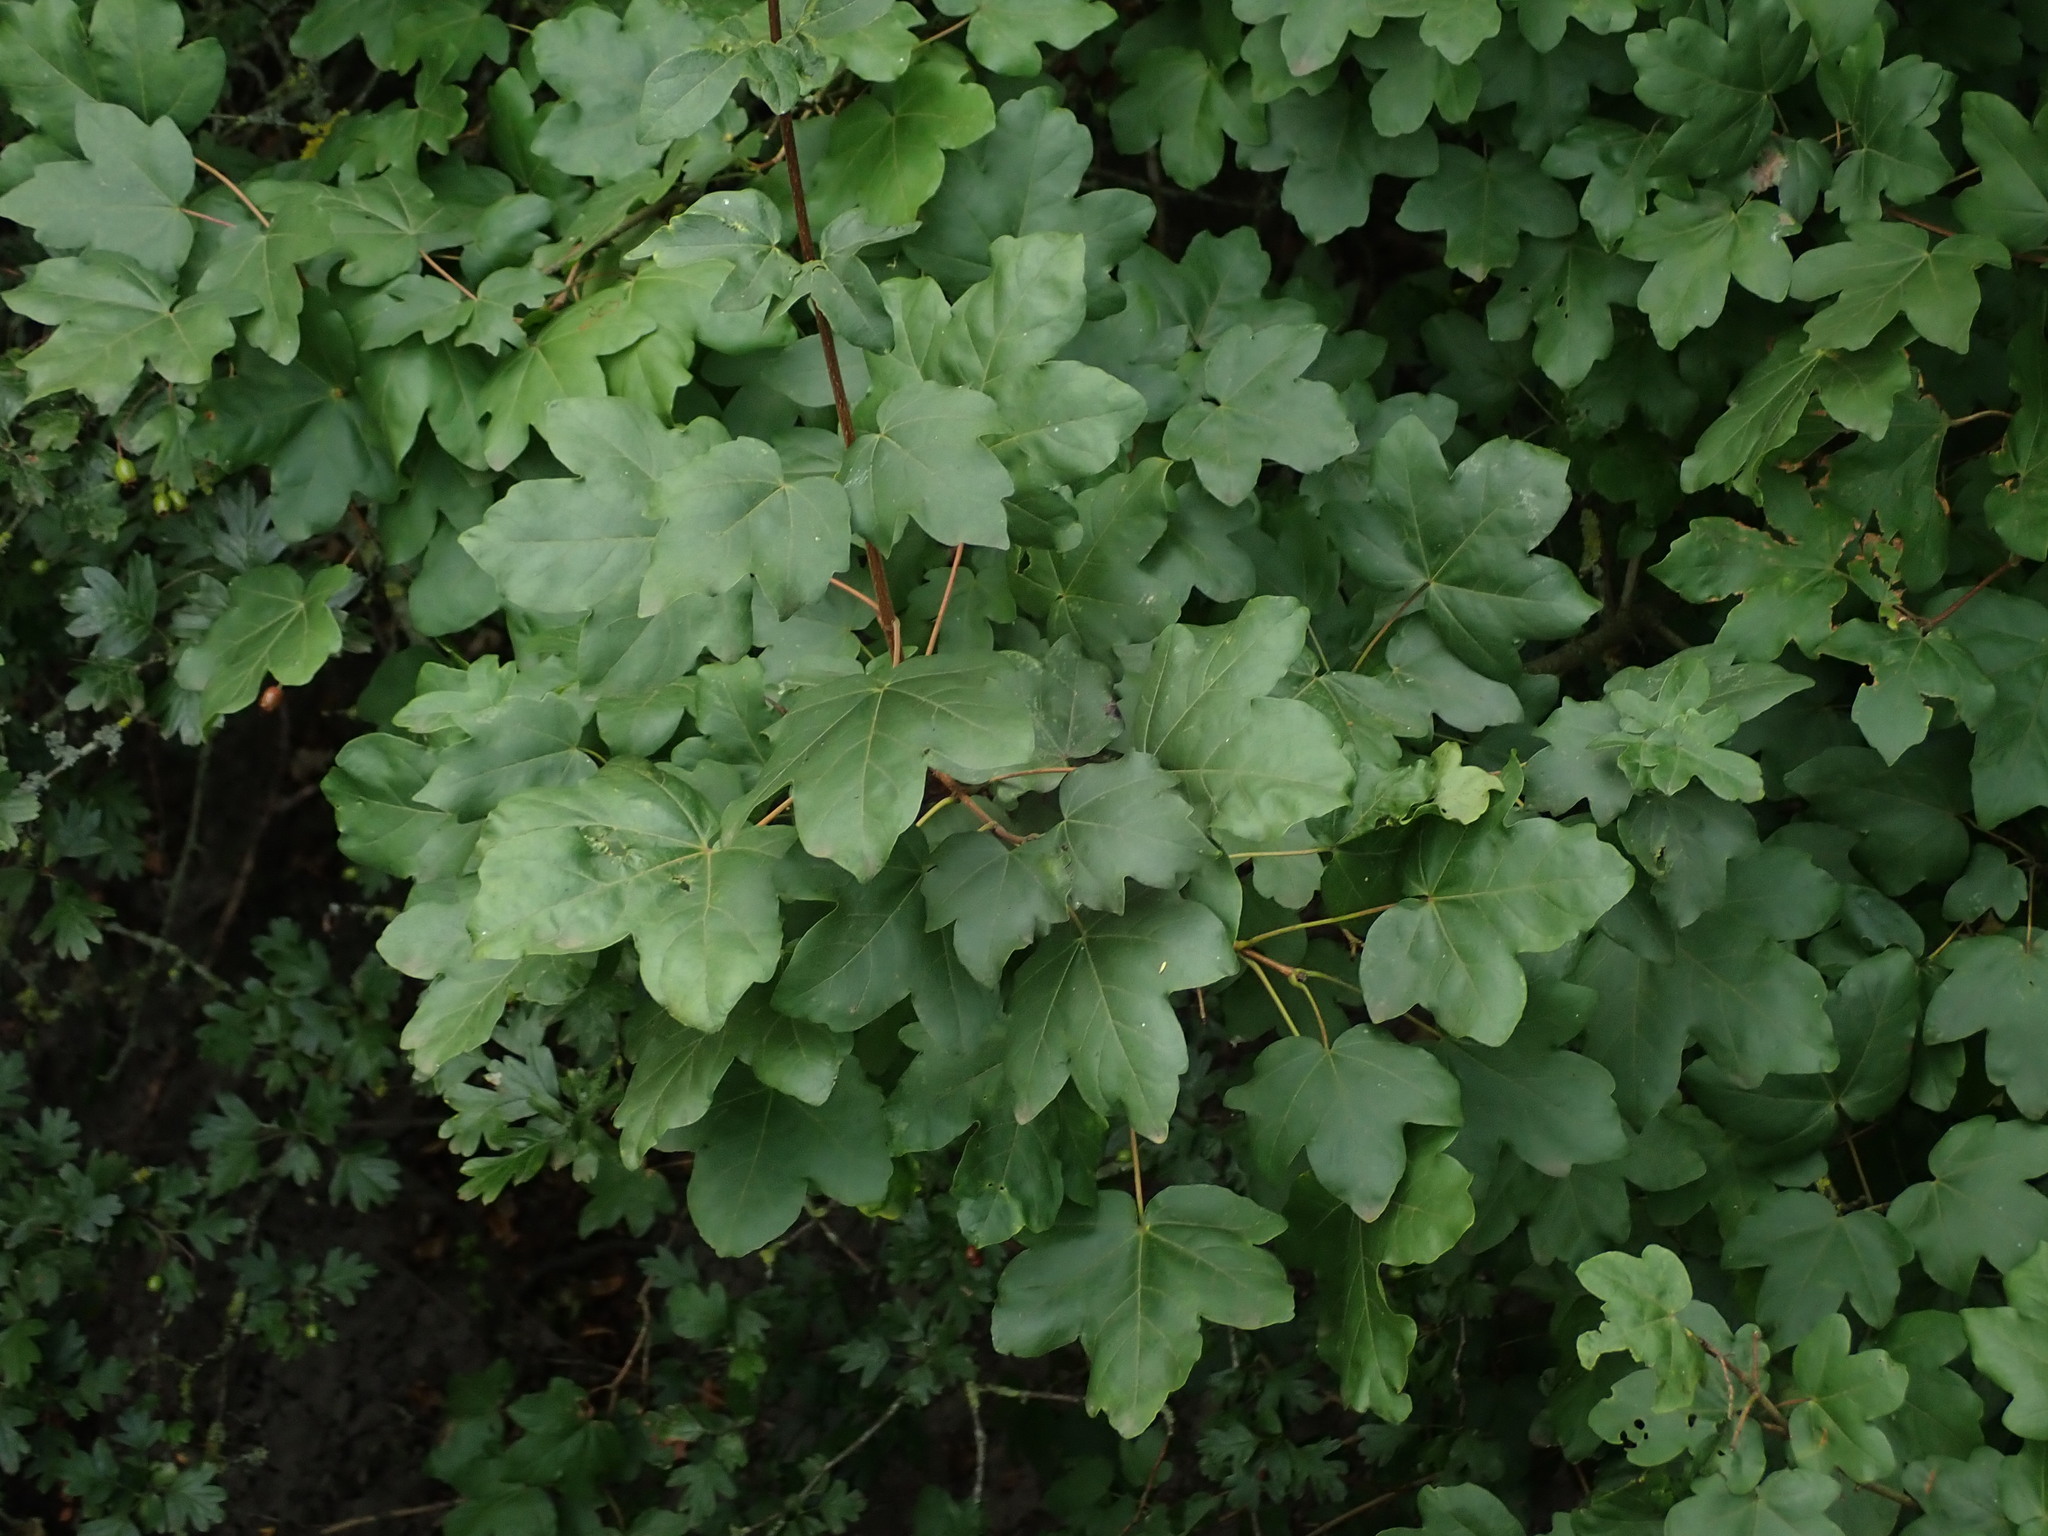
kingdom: Plantae
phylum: Tracheophyta
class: Magnoliopsida
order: Sapindales
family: Sapindaceae
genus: Acer
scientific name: Acer campestre
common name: Field maple
